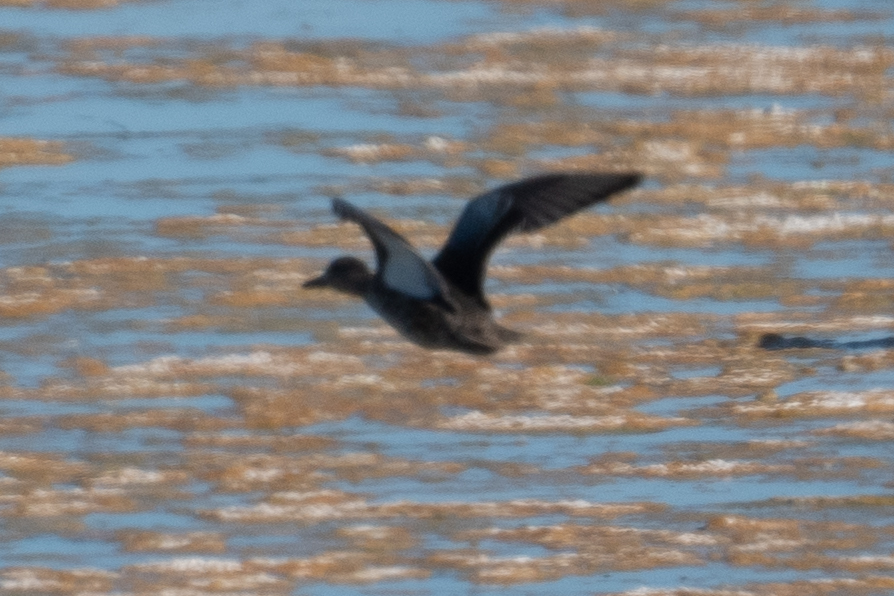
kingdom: Animalia
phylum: Chordata
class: Aves
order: Anseriformes
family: Anatidae
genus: Spatula
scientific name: Spatula cyanoptera
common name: Cinnamon teal
